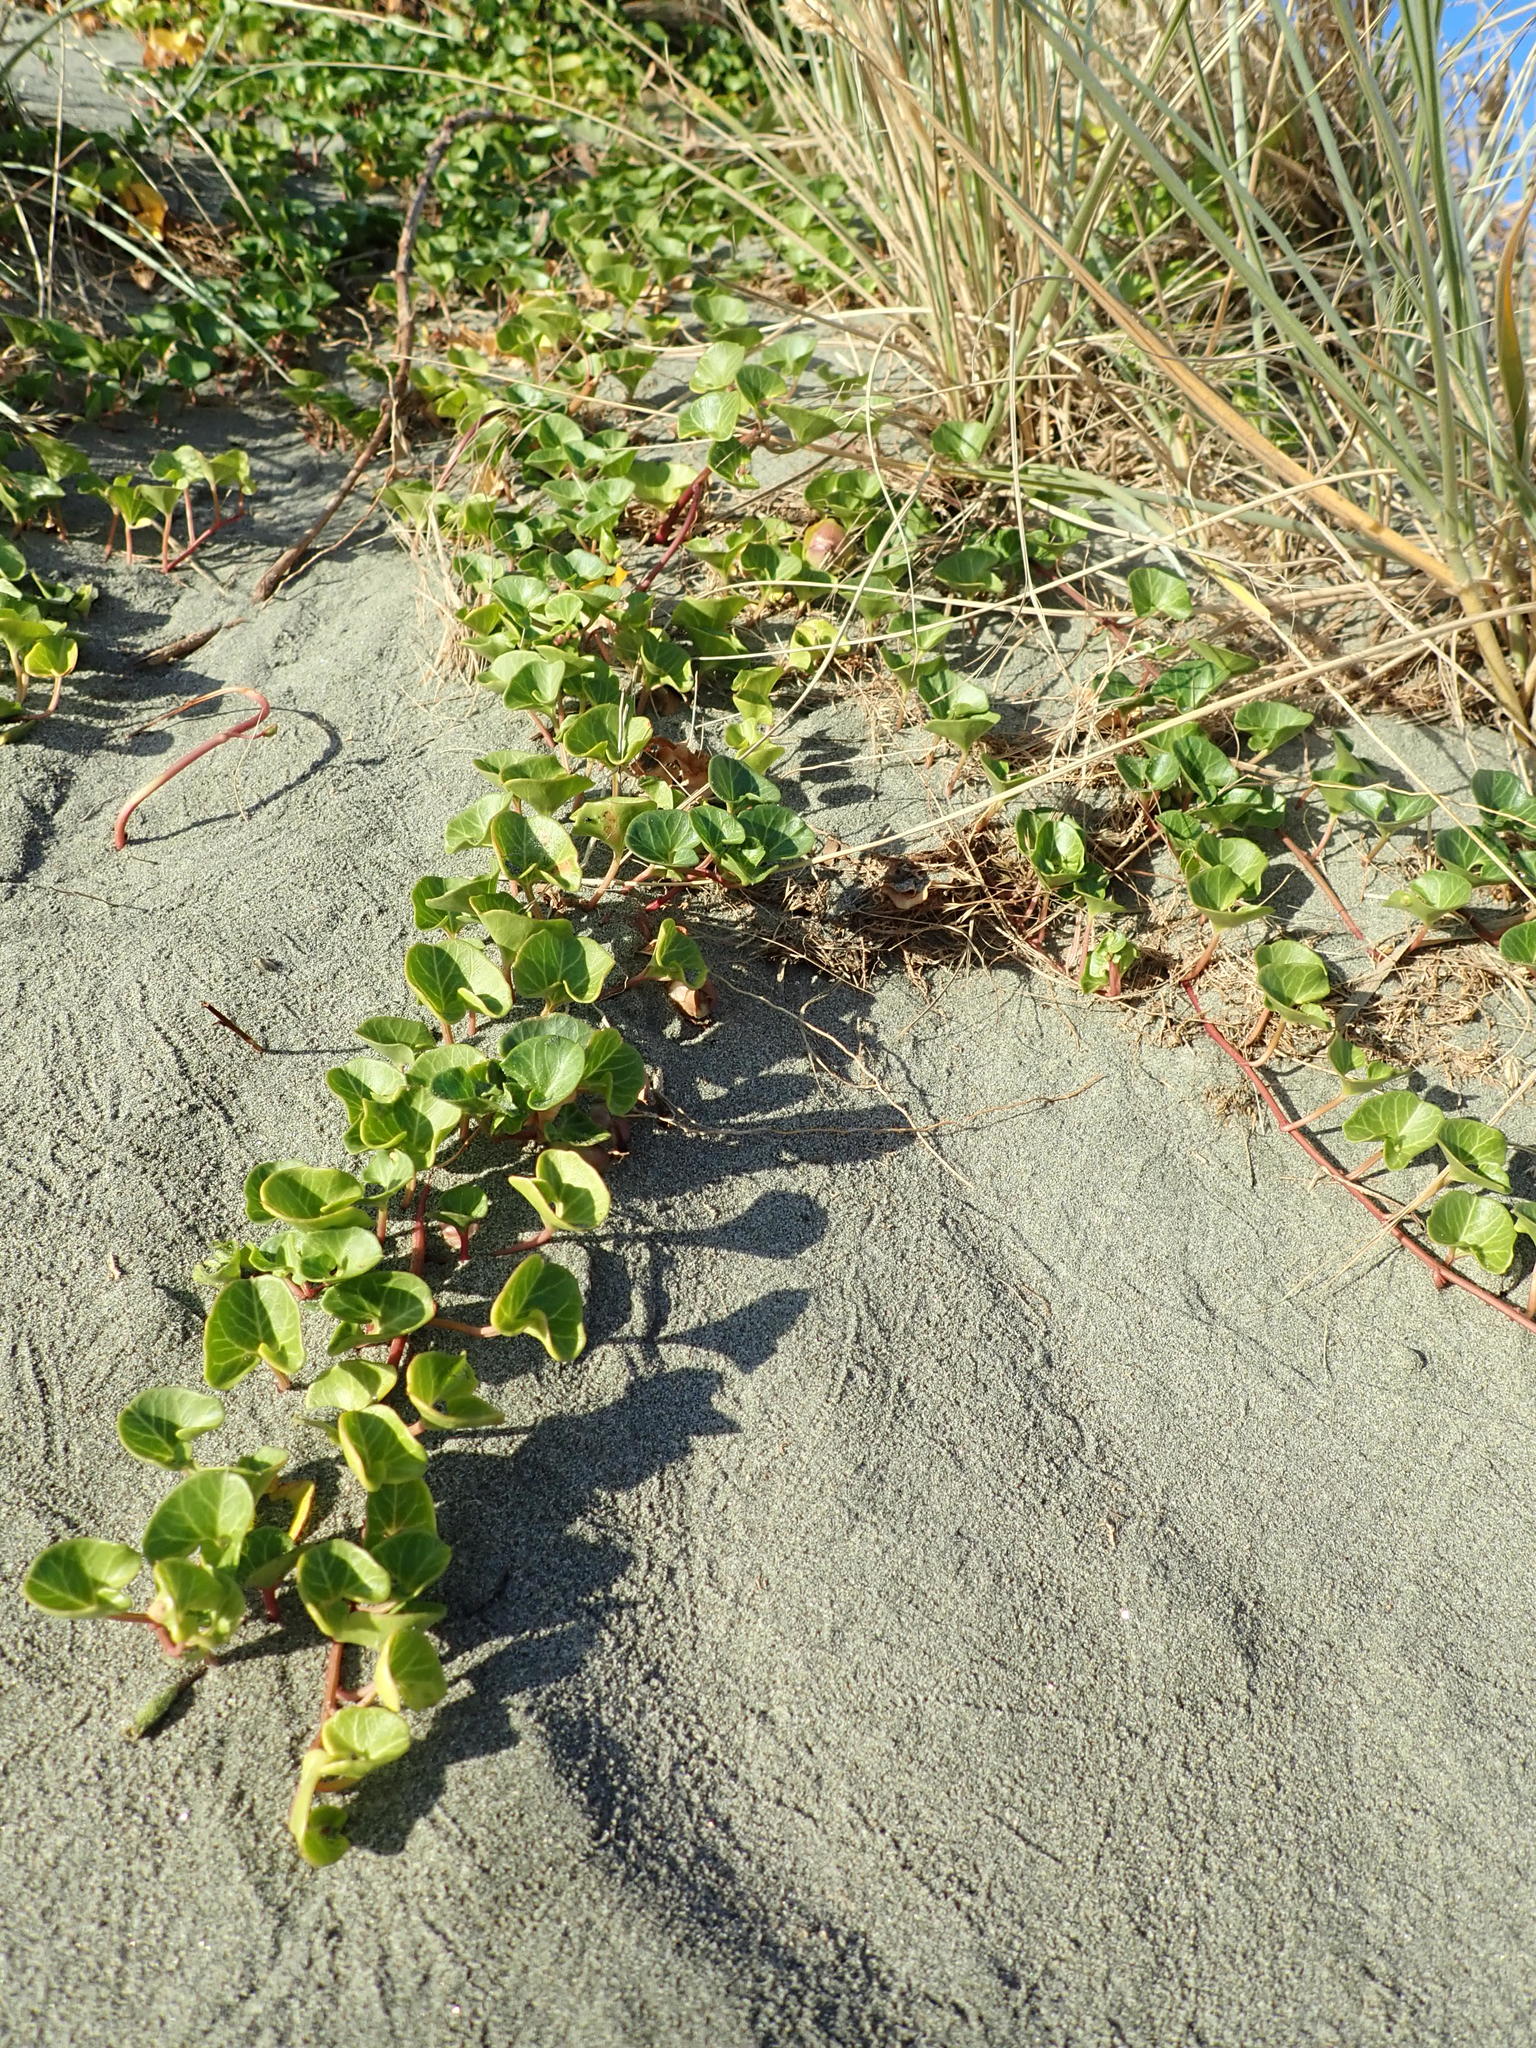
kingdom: Plantae
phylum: Tracheophyta
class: Magnoliopsida
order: Solanales
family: Convolvulaceae
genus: Calystegia
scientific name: Calystegia soldanella
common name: Sea bindweed
